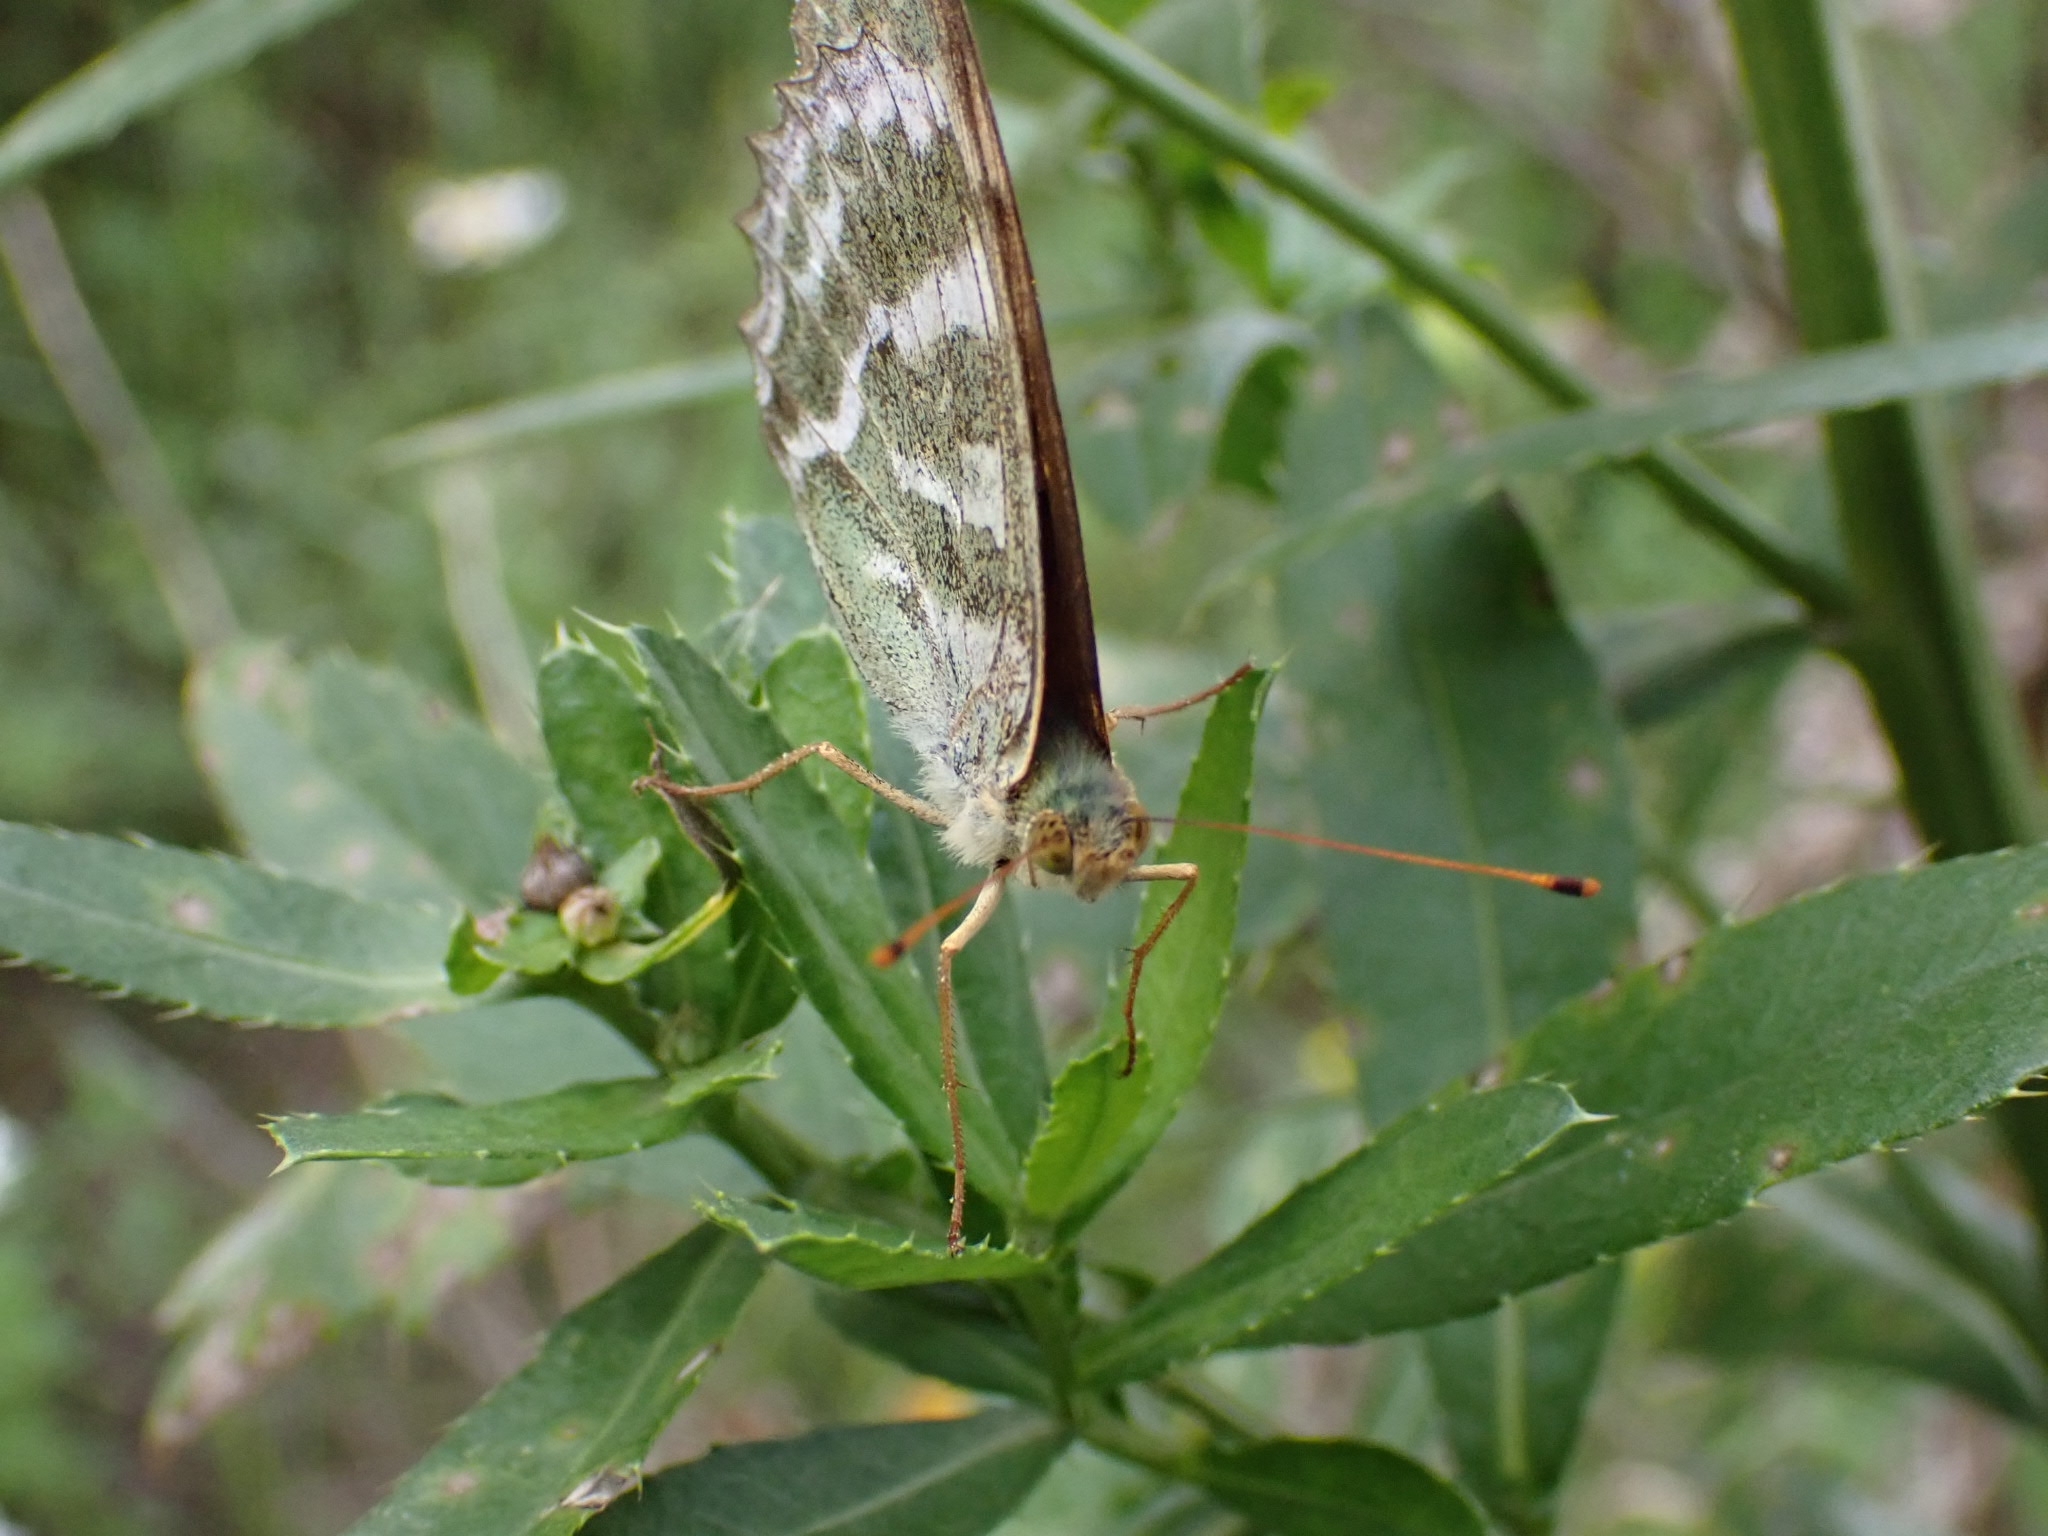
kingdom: Animalia
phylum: Arthropoda
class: Insecta
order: Lepidoptera
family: Nymphalidae
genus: Argynnis
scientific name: Argynnis paphia
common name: Silver-washed fritillary
